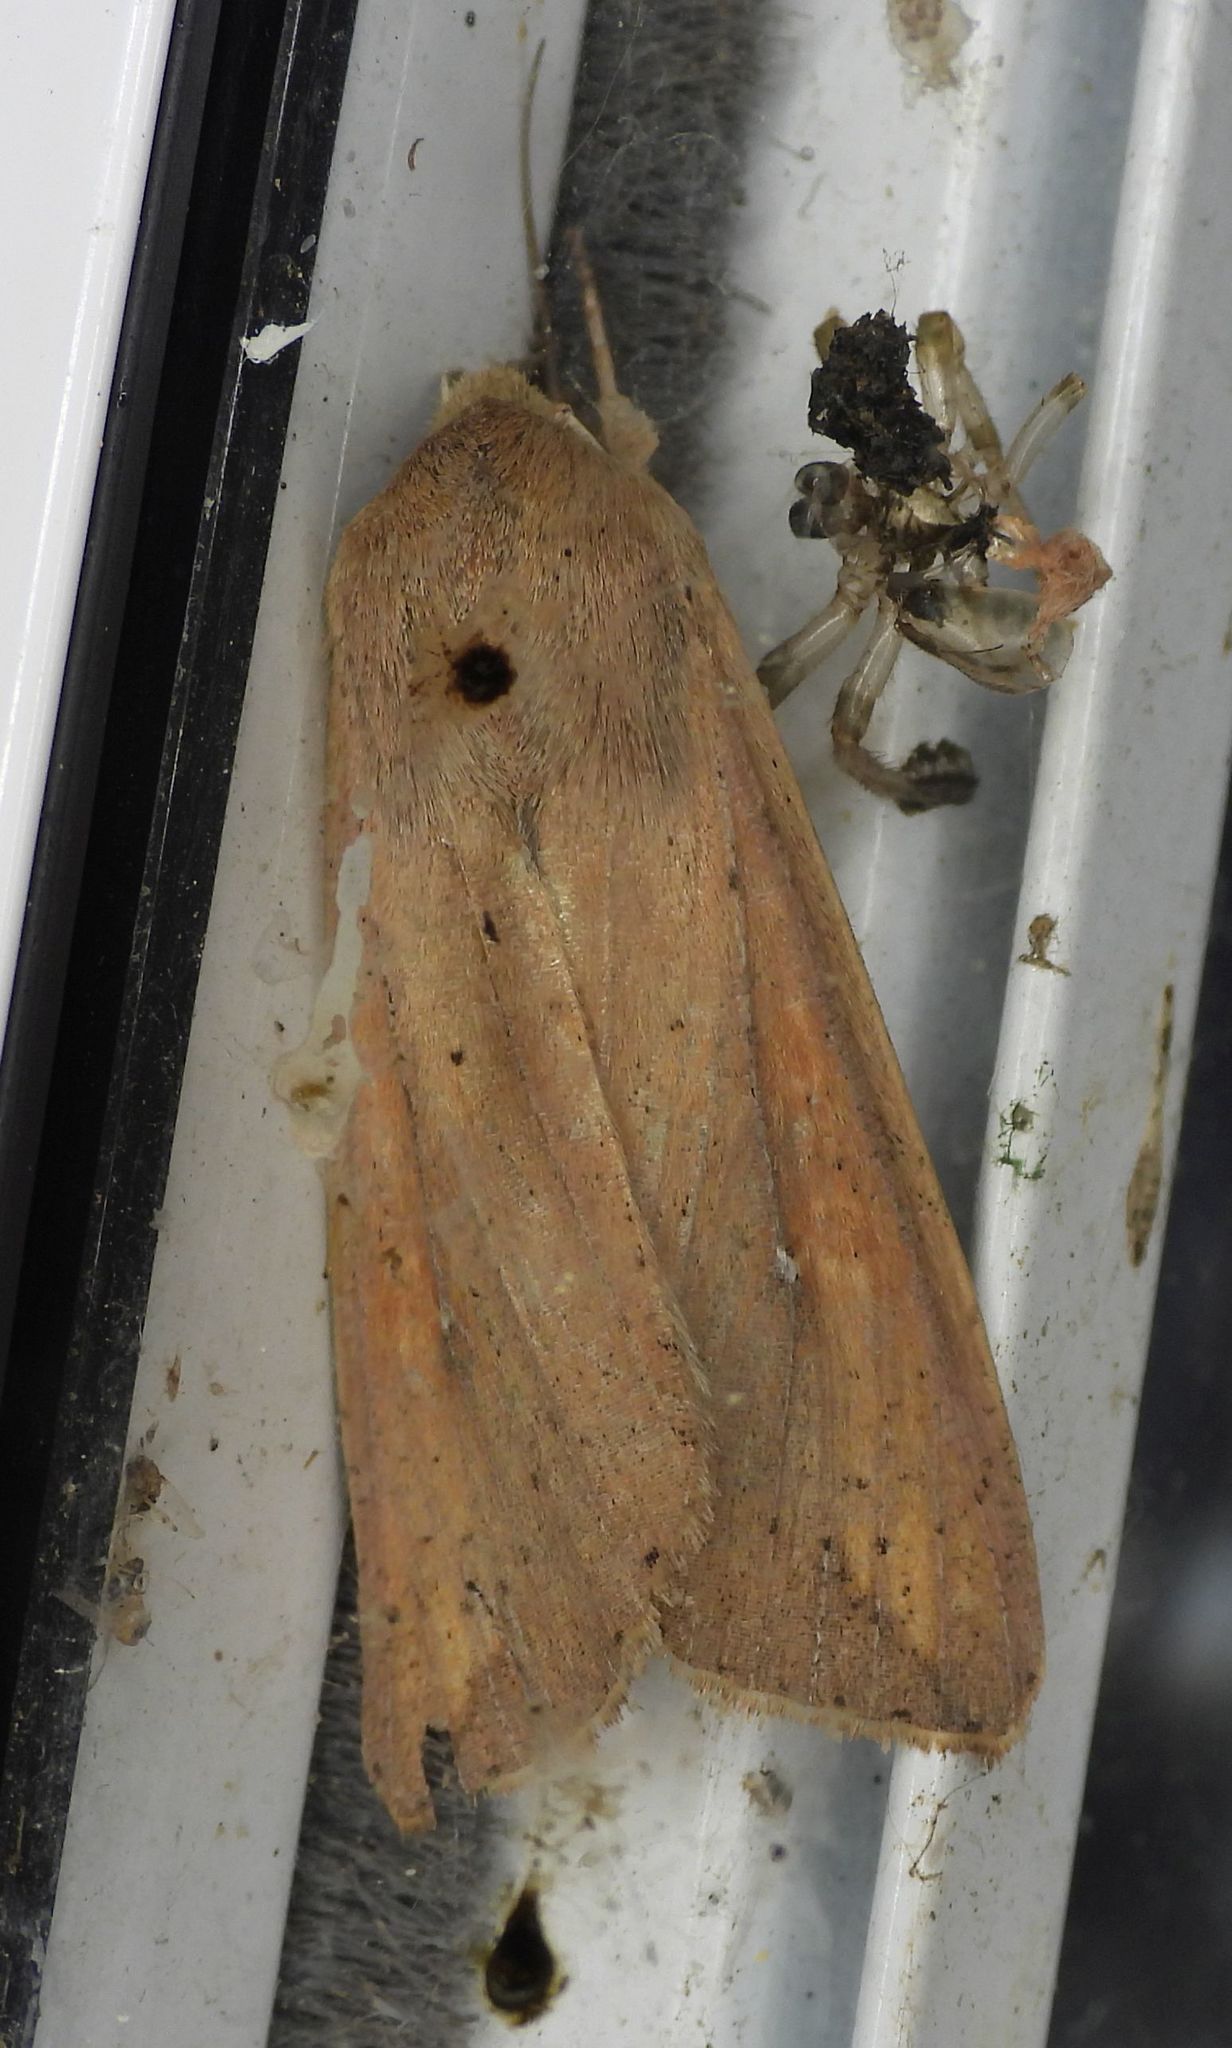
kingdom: Animalia
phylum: Arthropoda
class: Insecta
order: Lepidoptera
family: Noctuidae
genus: Mythimna
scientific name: Mythimna unipuncta
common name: White-speck
